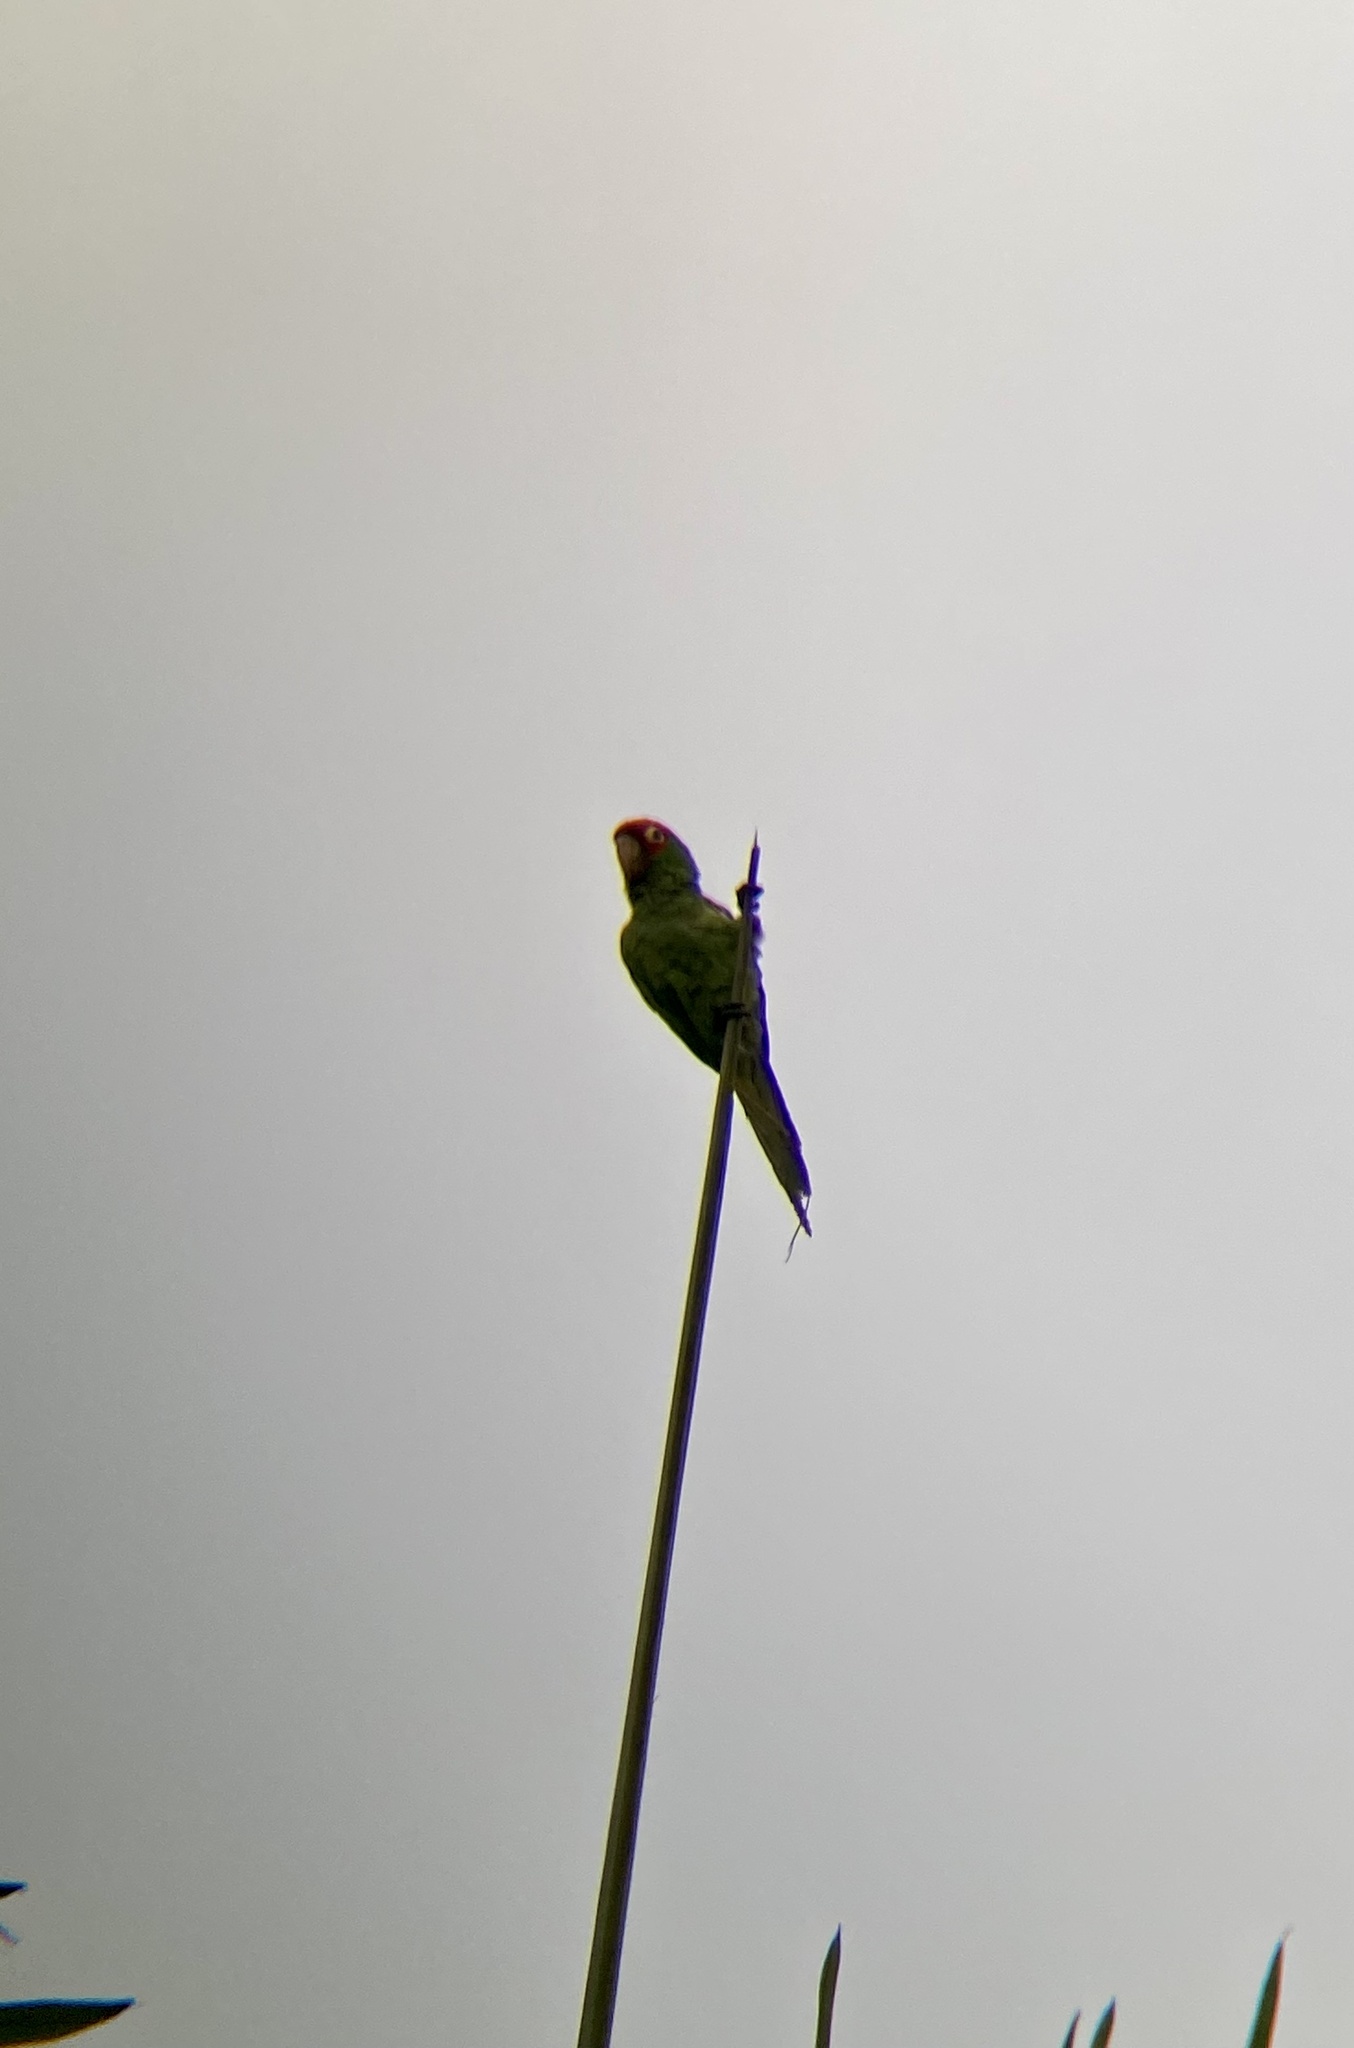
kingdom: Animalia
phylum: Chordata
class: Aves
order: Psittaciformes
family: Psittacidae
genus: Aratinga
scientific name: Aratinga erythrogenys
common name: Red-masked parakeet
